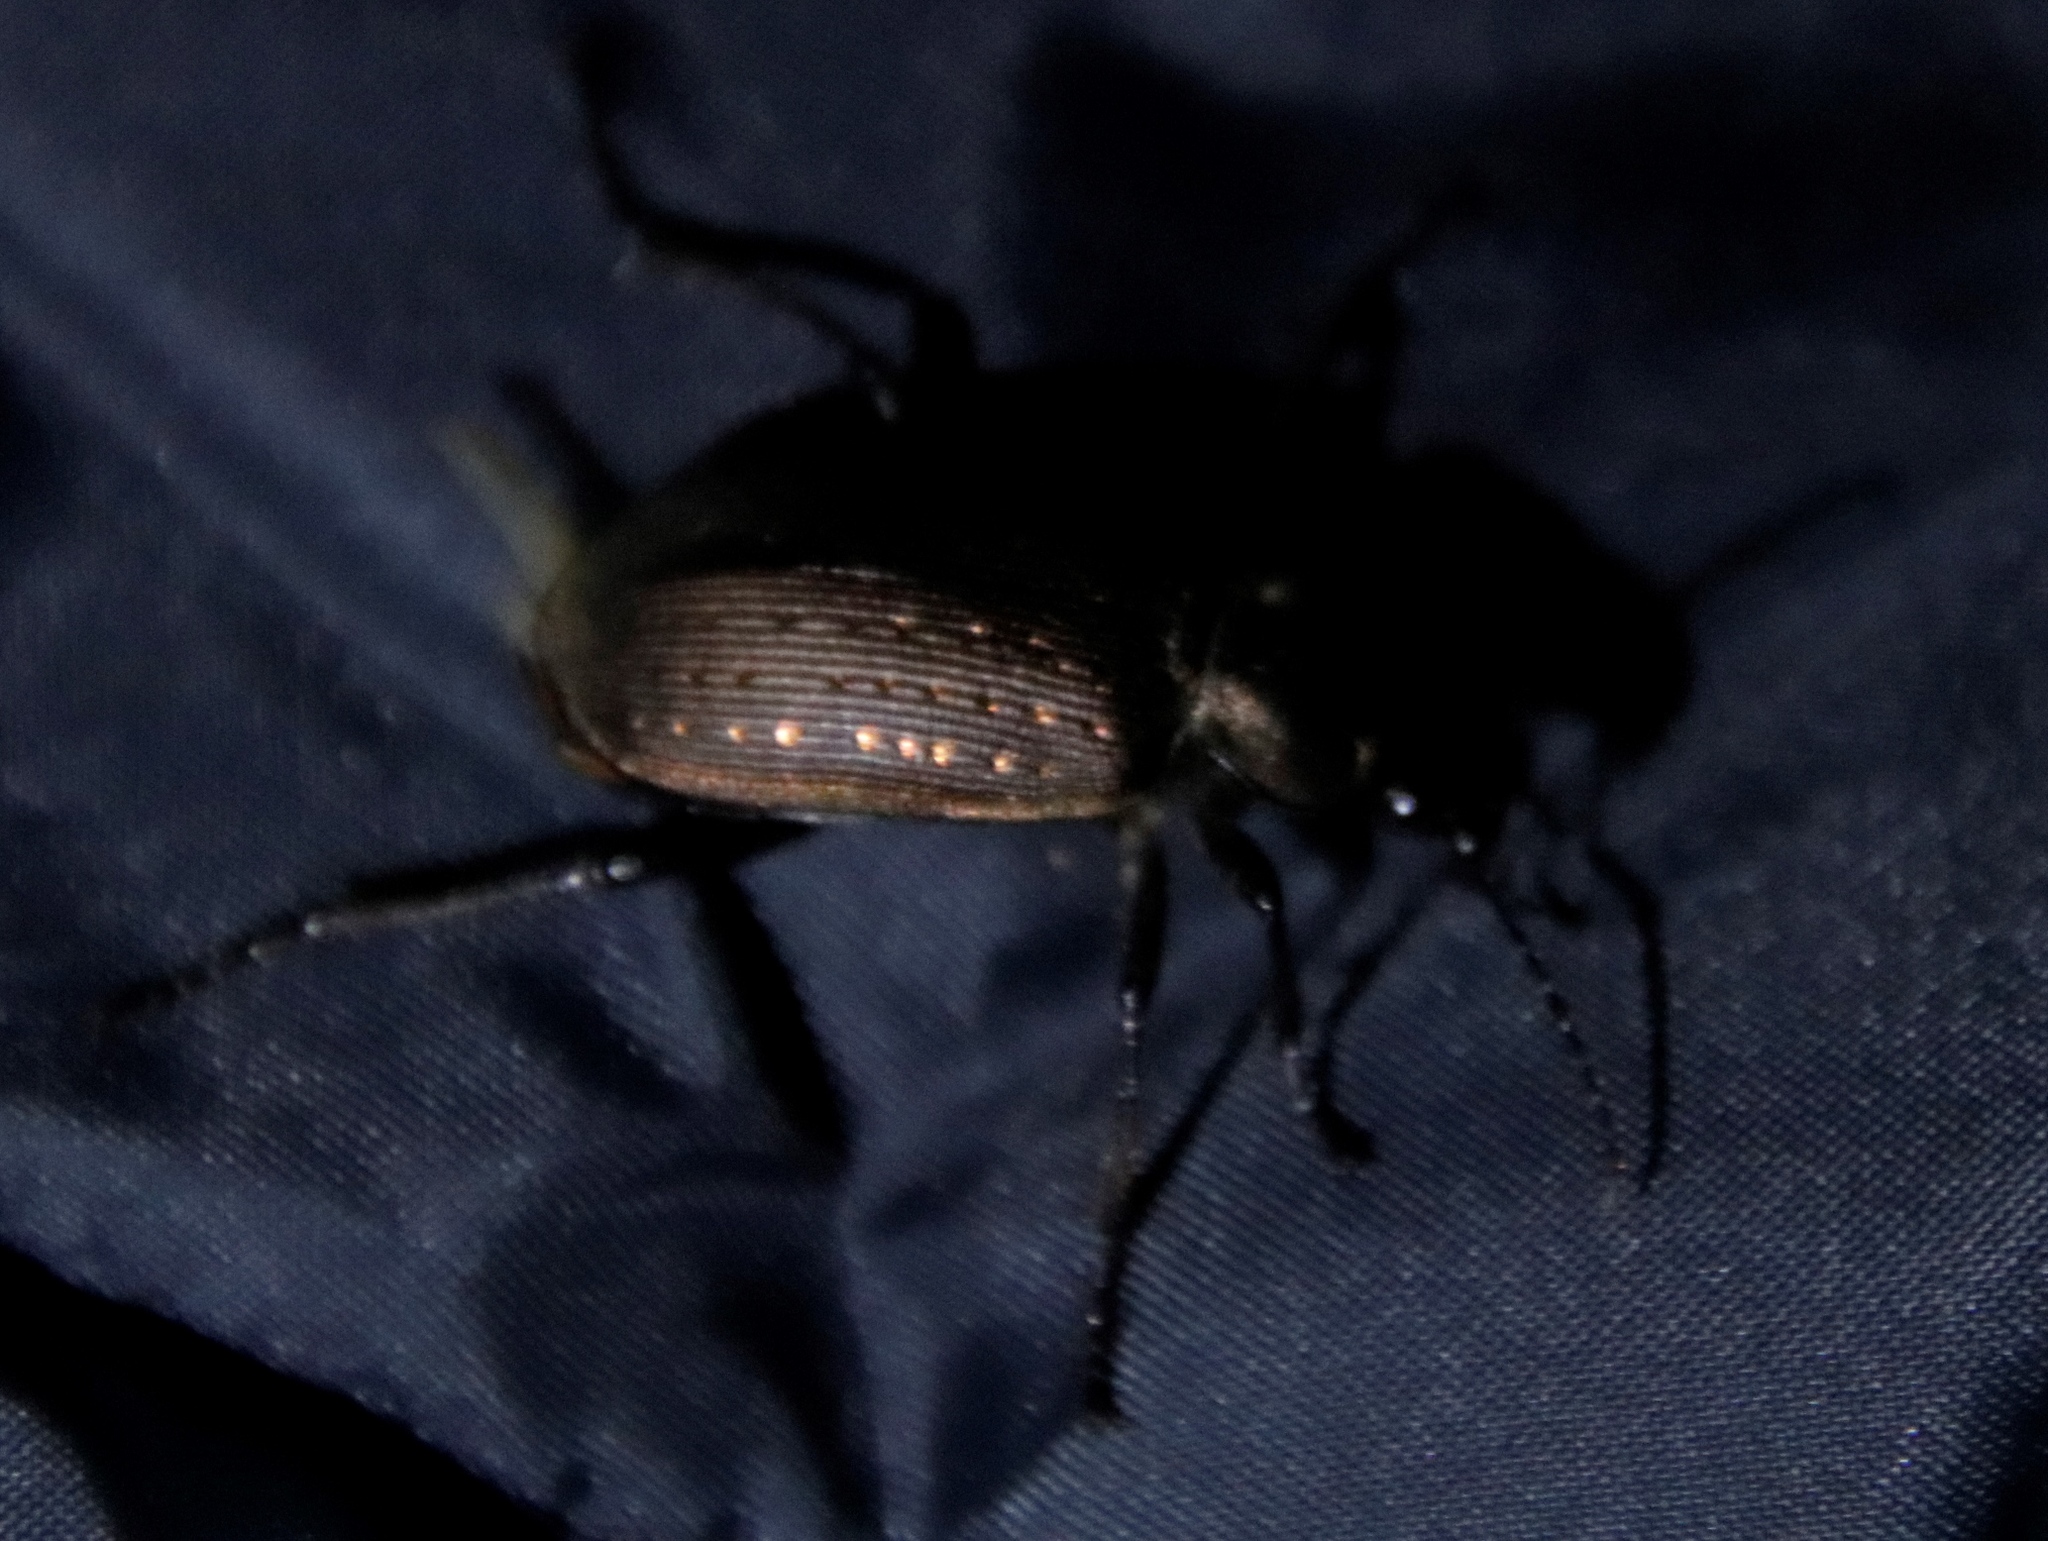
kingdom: Animalia
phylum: Arthropoda
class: Insecta
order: Coleoptera
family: Carabidae
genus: Calosoma
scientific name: Calosoma chlorostictum
